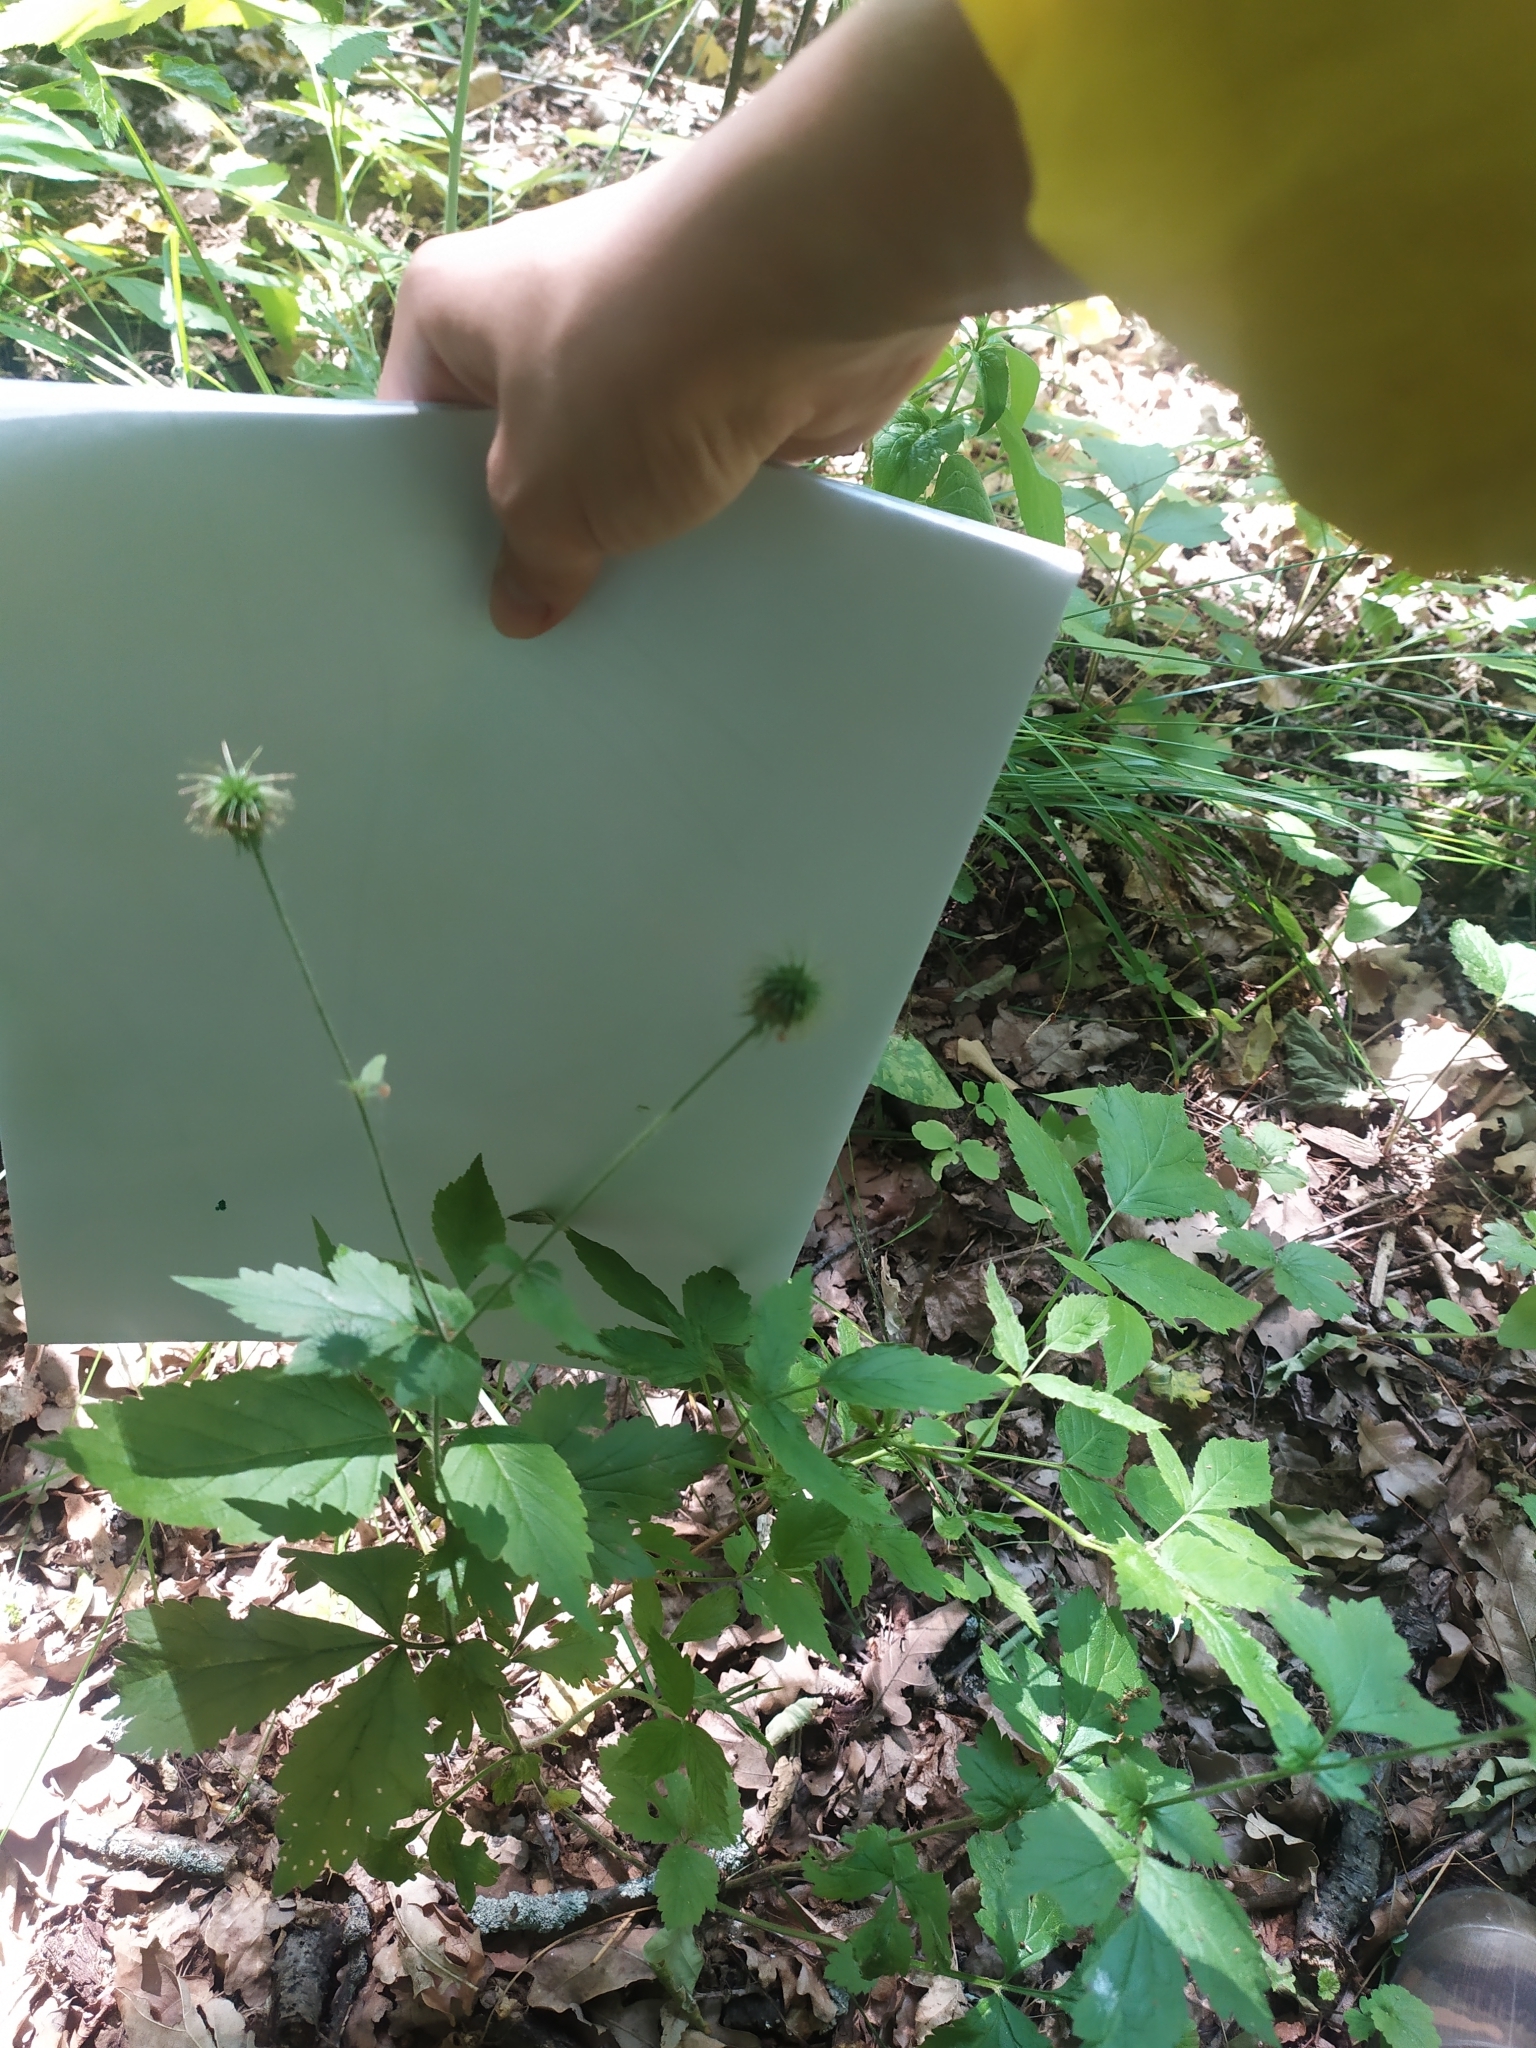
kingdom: Plantae
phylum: Tracheophyta
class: Magnoliopsida
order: Rosales
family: Rosaceae
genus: Geum
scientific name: Geum urbanum
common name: Wood avens
